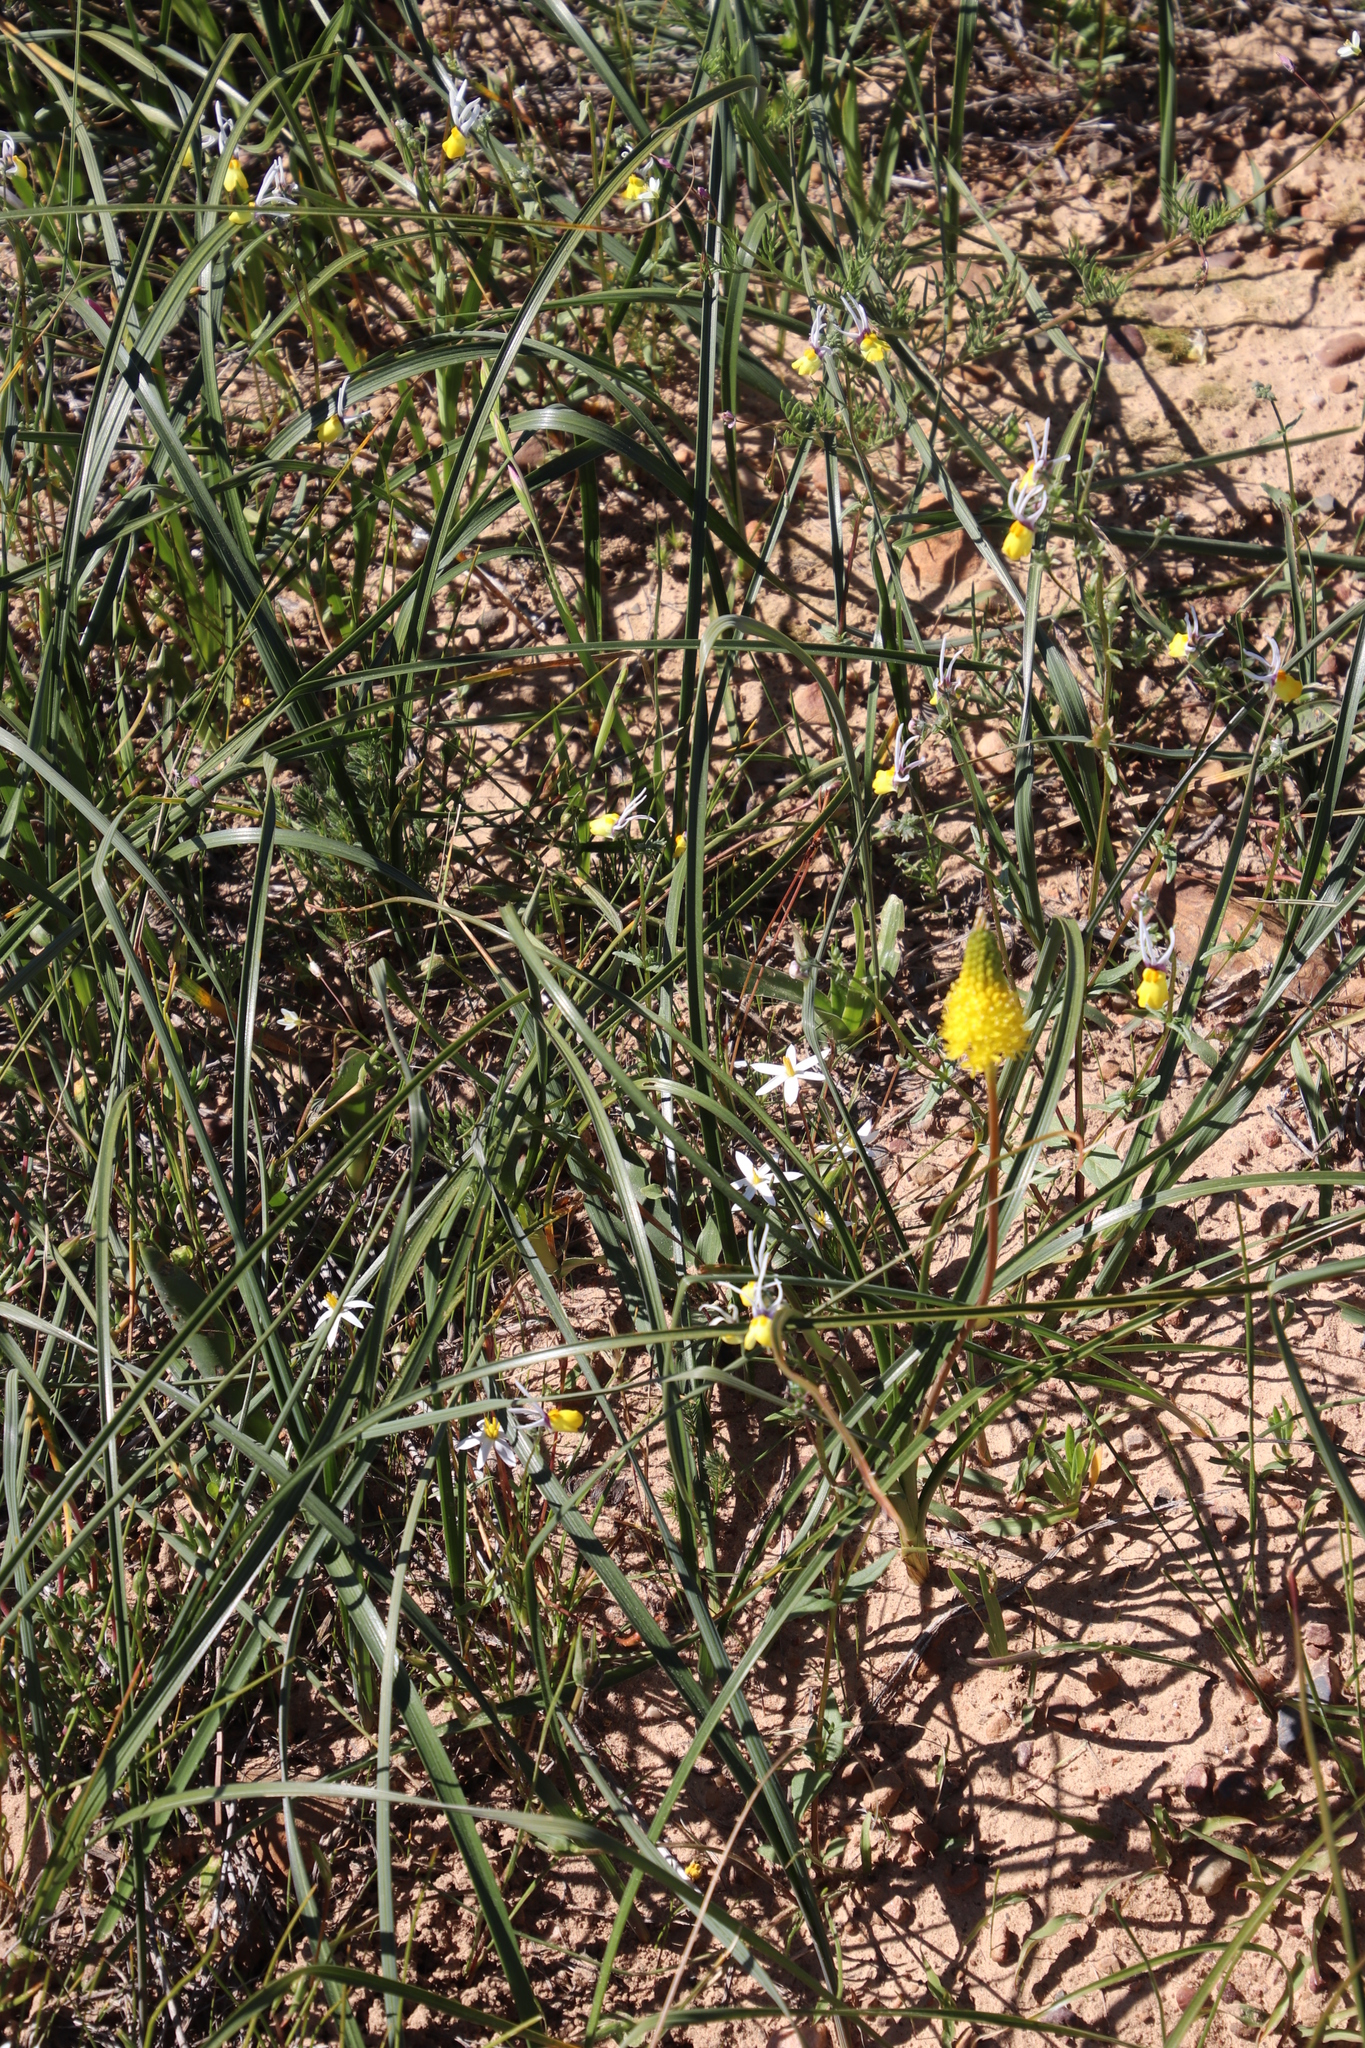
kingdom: Plantae
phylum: Tracheophyta
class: Liliopsida
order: Asparagales
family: Asphodelaceae
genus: Bulbinella
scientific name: Bulbinella nutans
